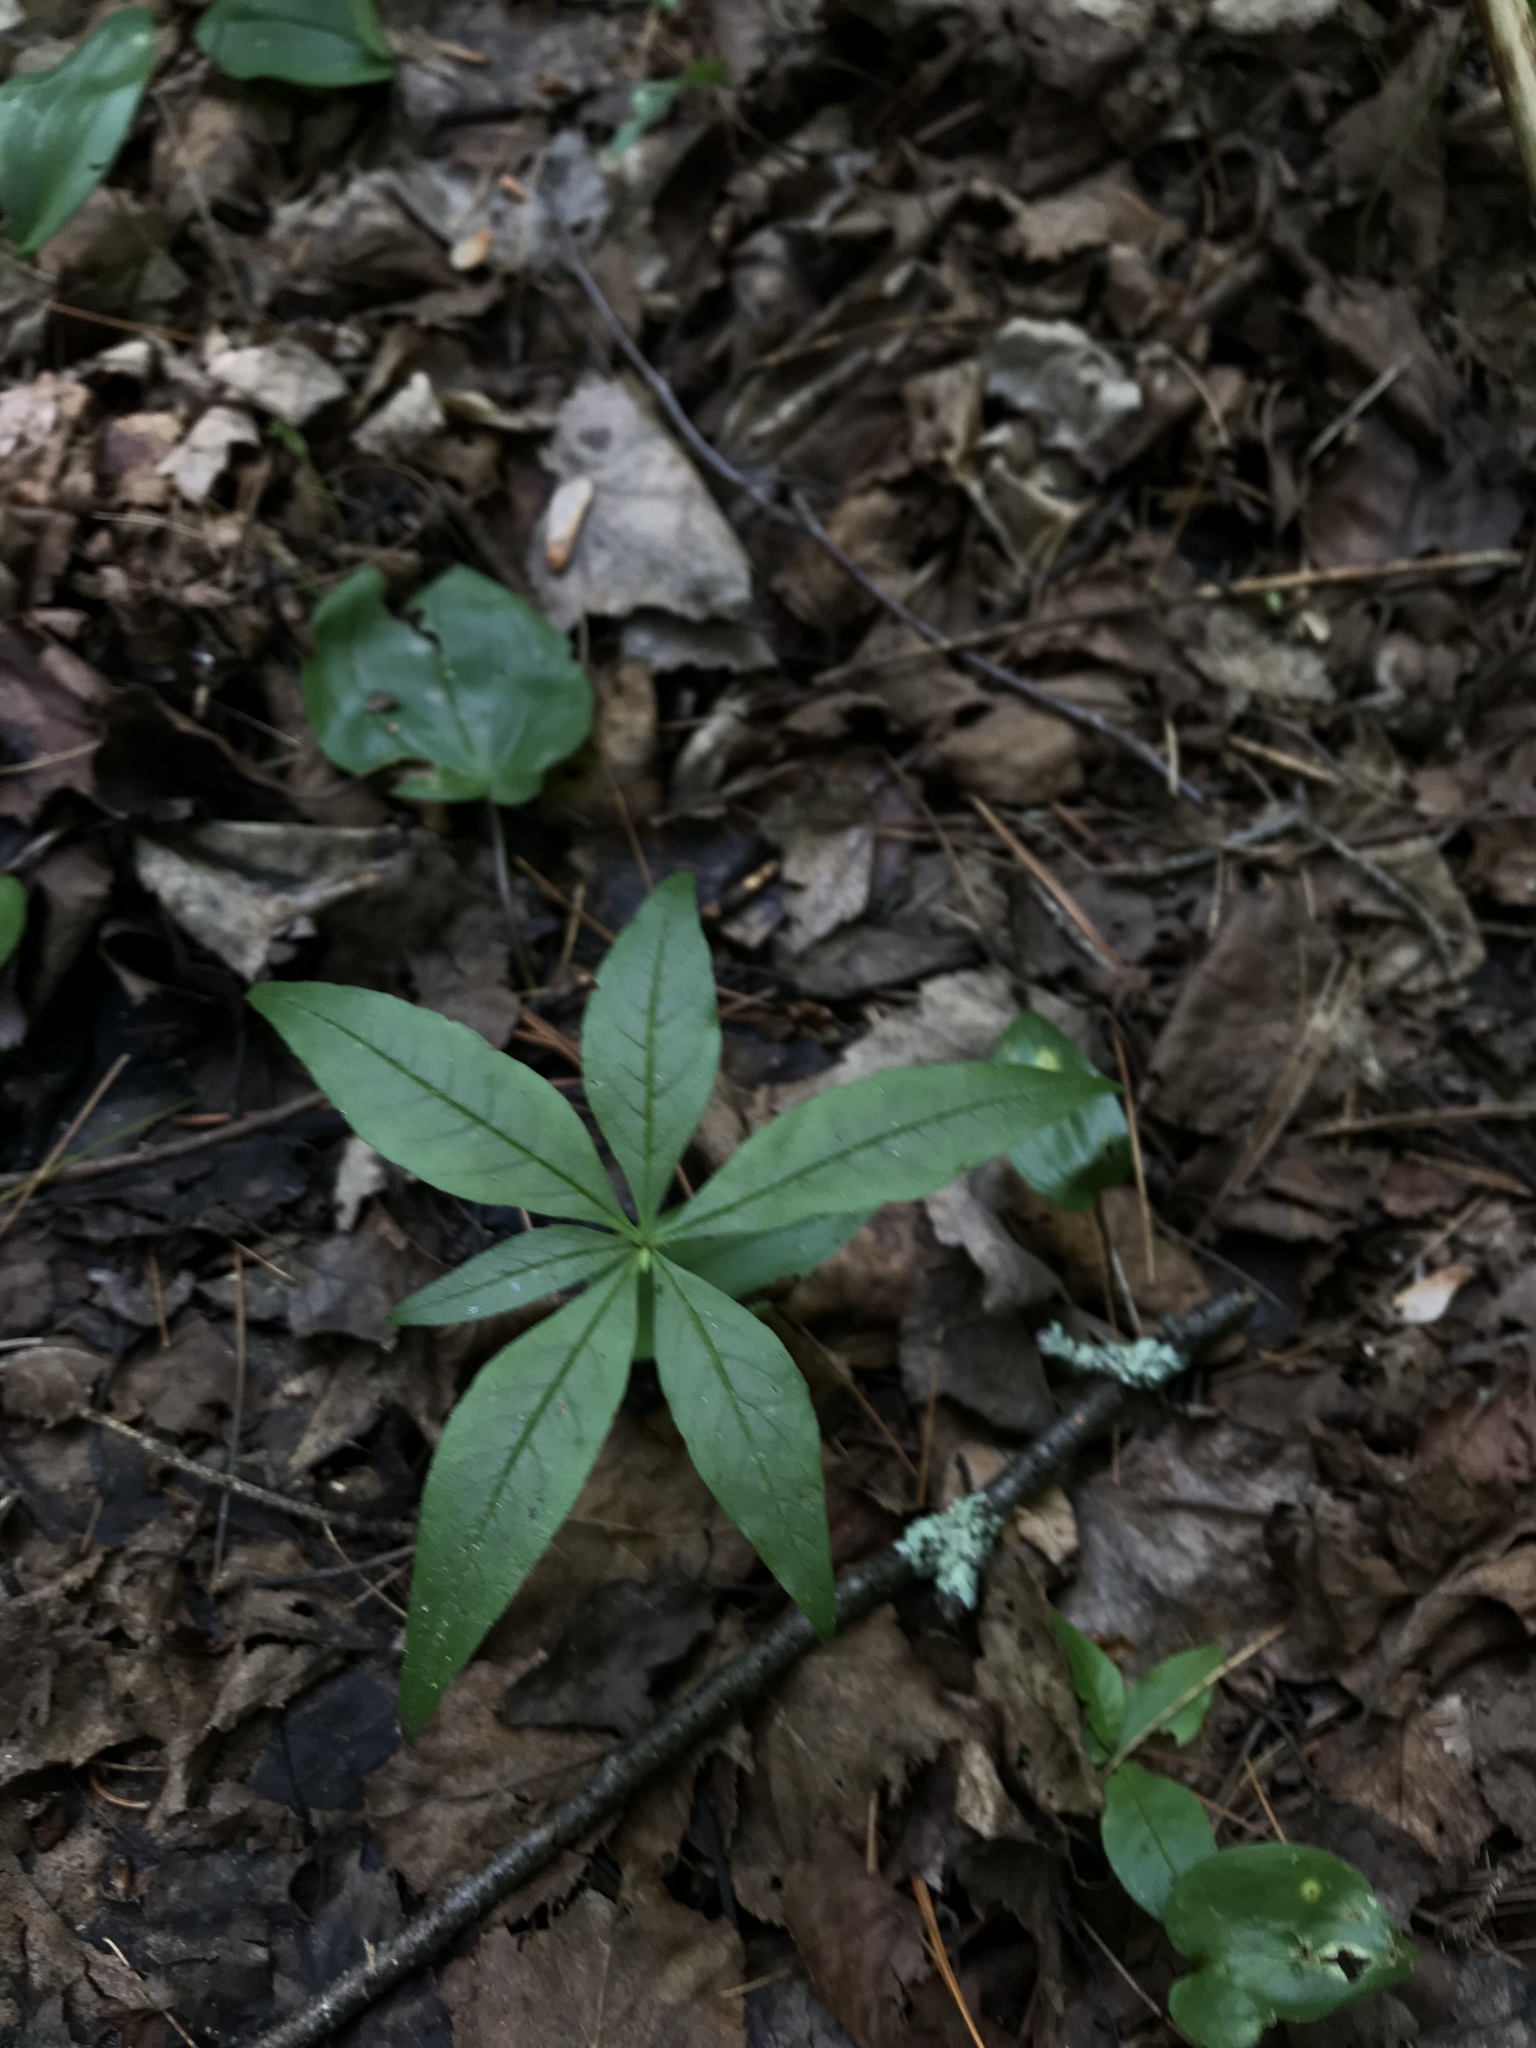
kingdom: Plantae
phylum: Tracheophyta
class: Magnoliopsida
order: Ericales
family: Primulaceae
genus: Lysimachia
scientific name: Lysimachia borealis
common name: American starflower
